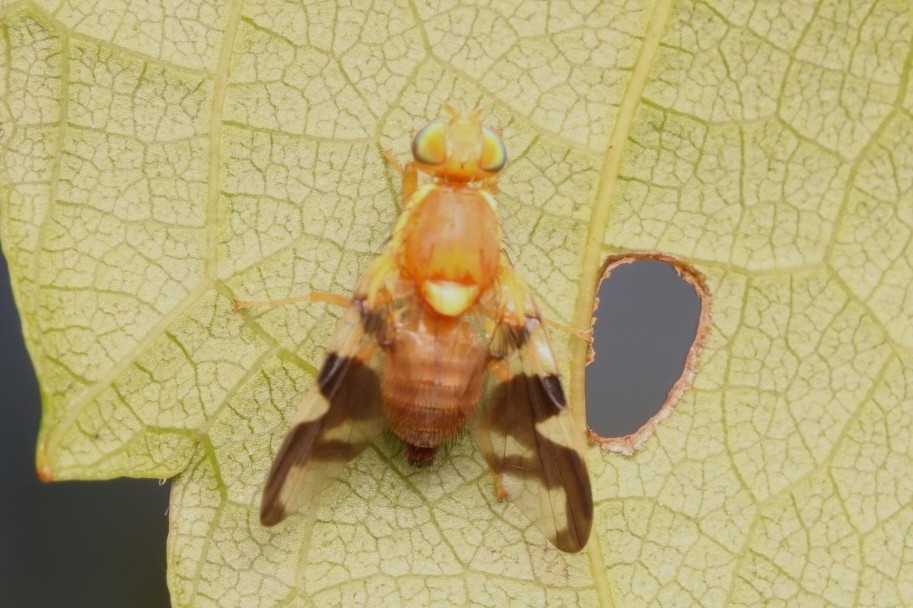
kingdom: Animalia
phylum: Arthropoda
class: Insecta
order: Diptera
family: Tephritidae
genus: Rhagoletis
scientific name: Rhagoletis suavis
